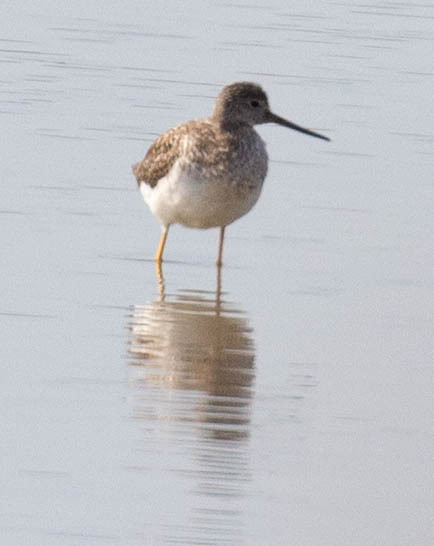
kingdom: Animalia
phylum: Chordata
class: Aves
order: Charadriiformes
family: Scolopacidae
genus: Tringa
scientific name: Tringa melanoleuca
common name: Greater yellowlegs
